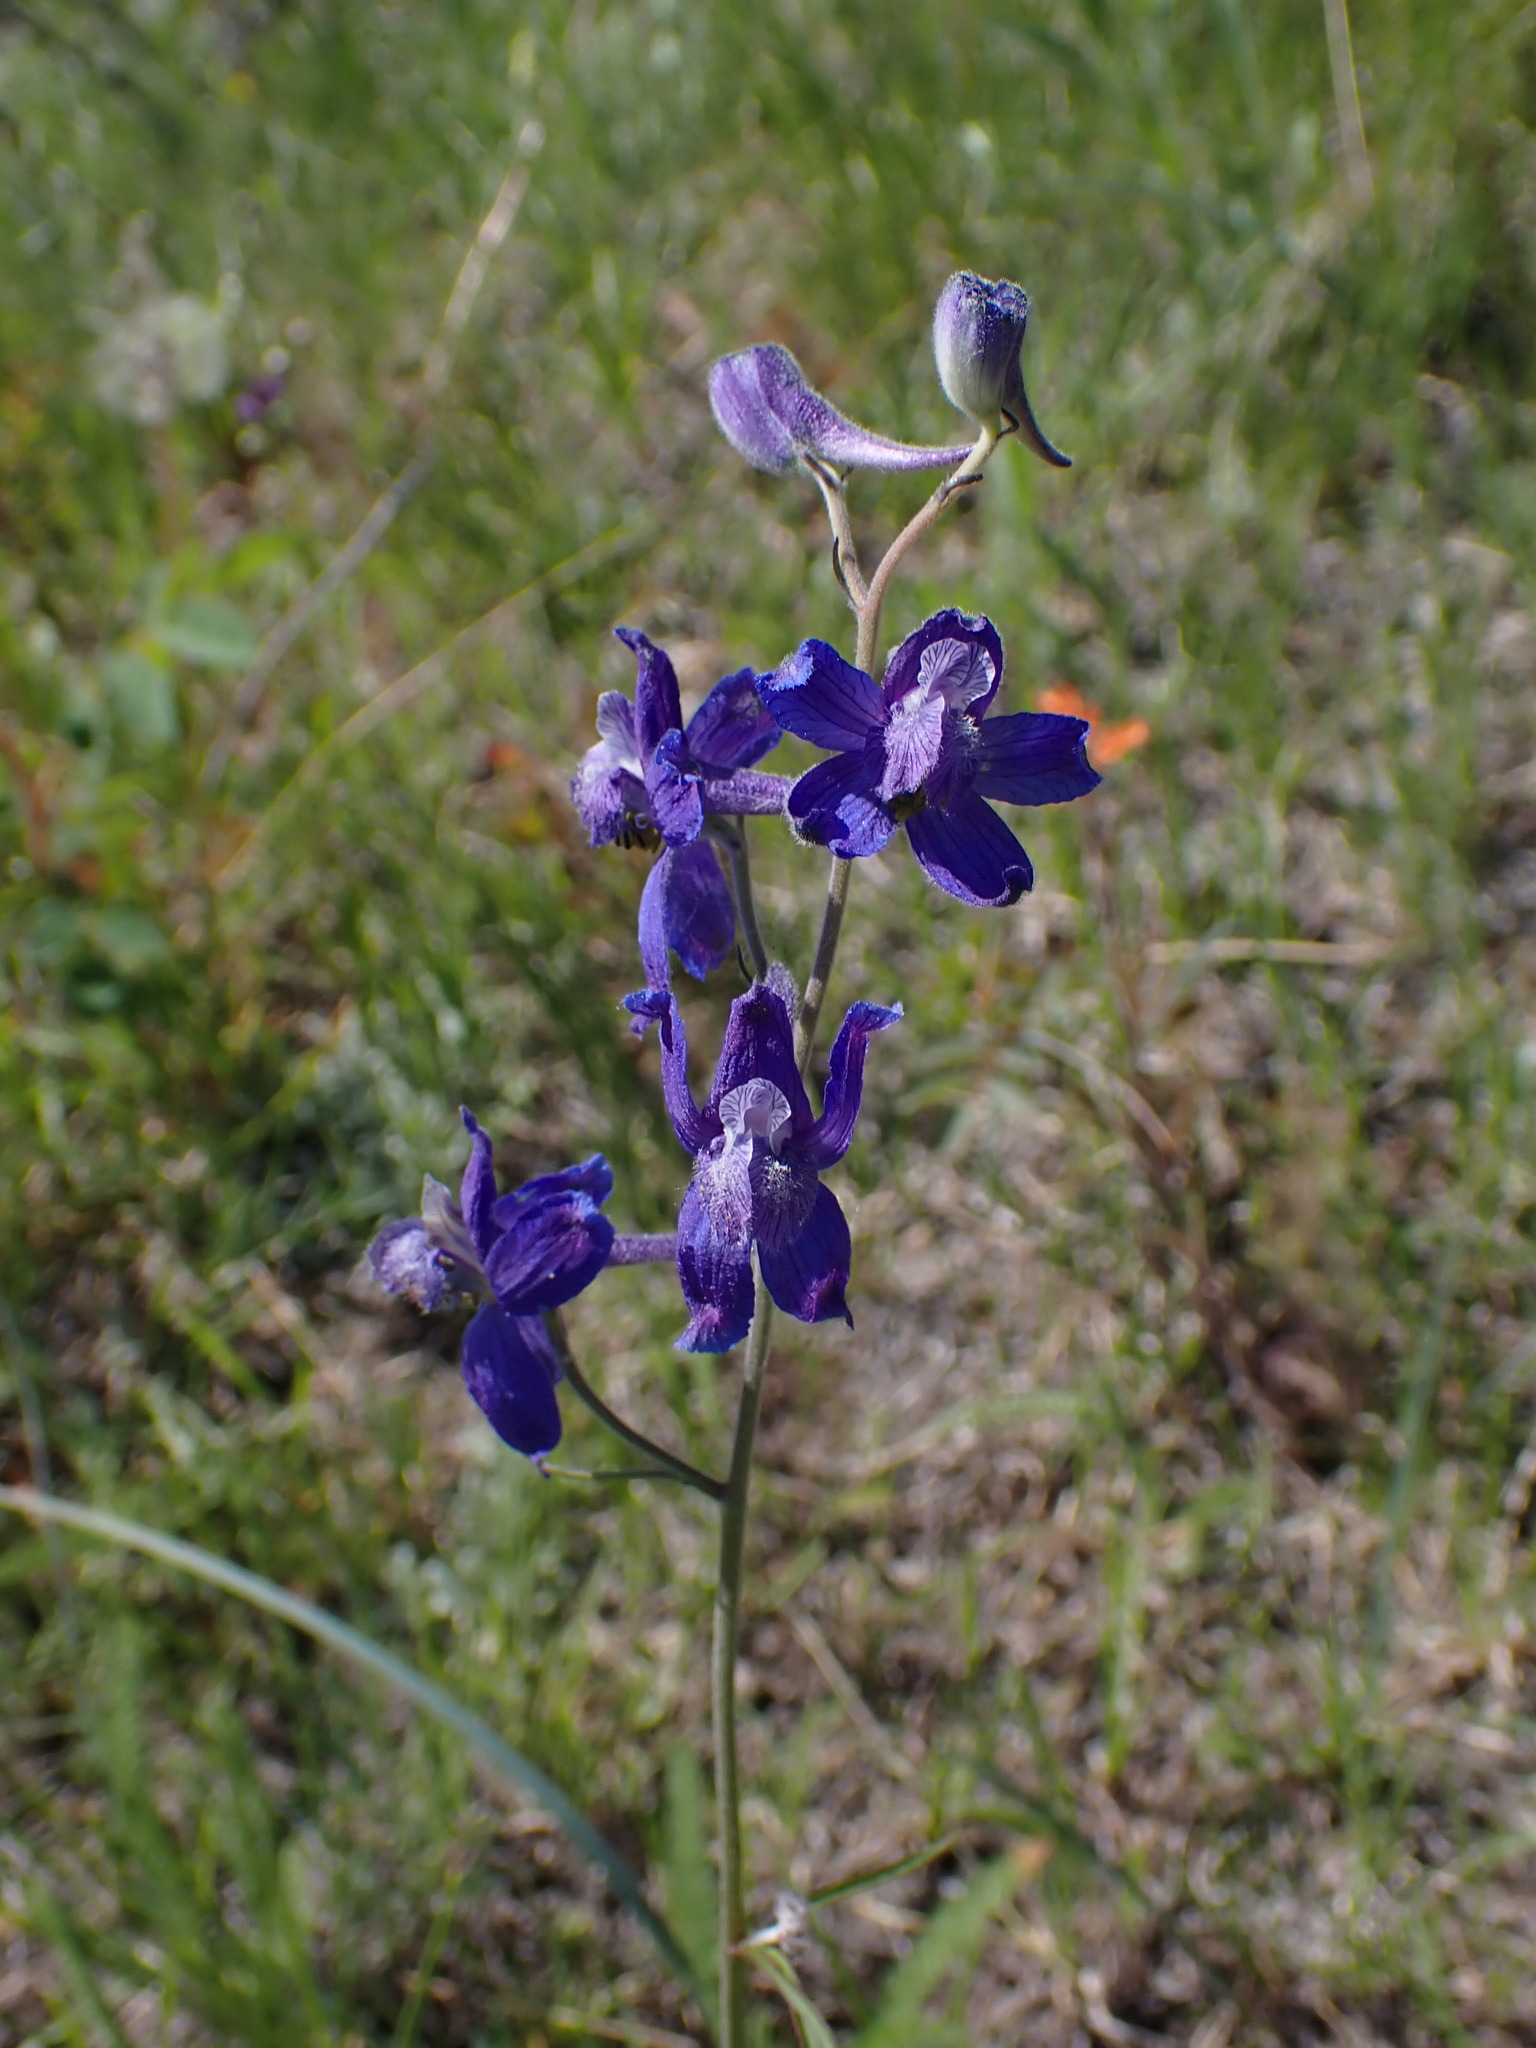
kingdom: Plantae
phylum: Tracheophyta
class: Magnoliopsida
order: Ranunculales
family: Ranunculaceae
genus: Delphinium
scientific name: Delphinium nuttallianum
